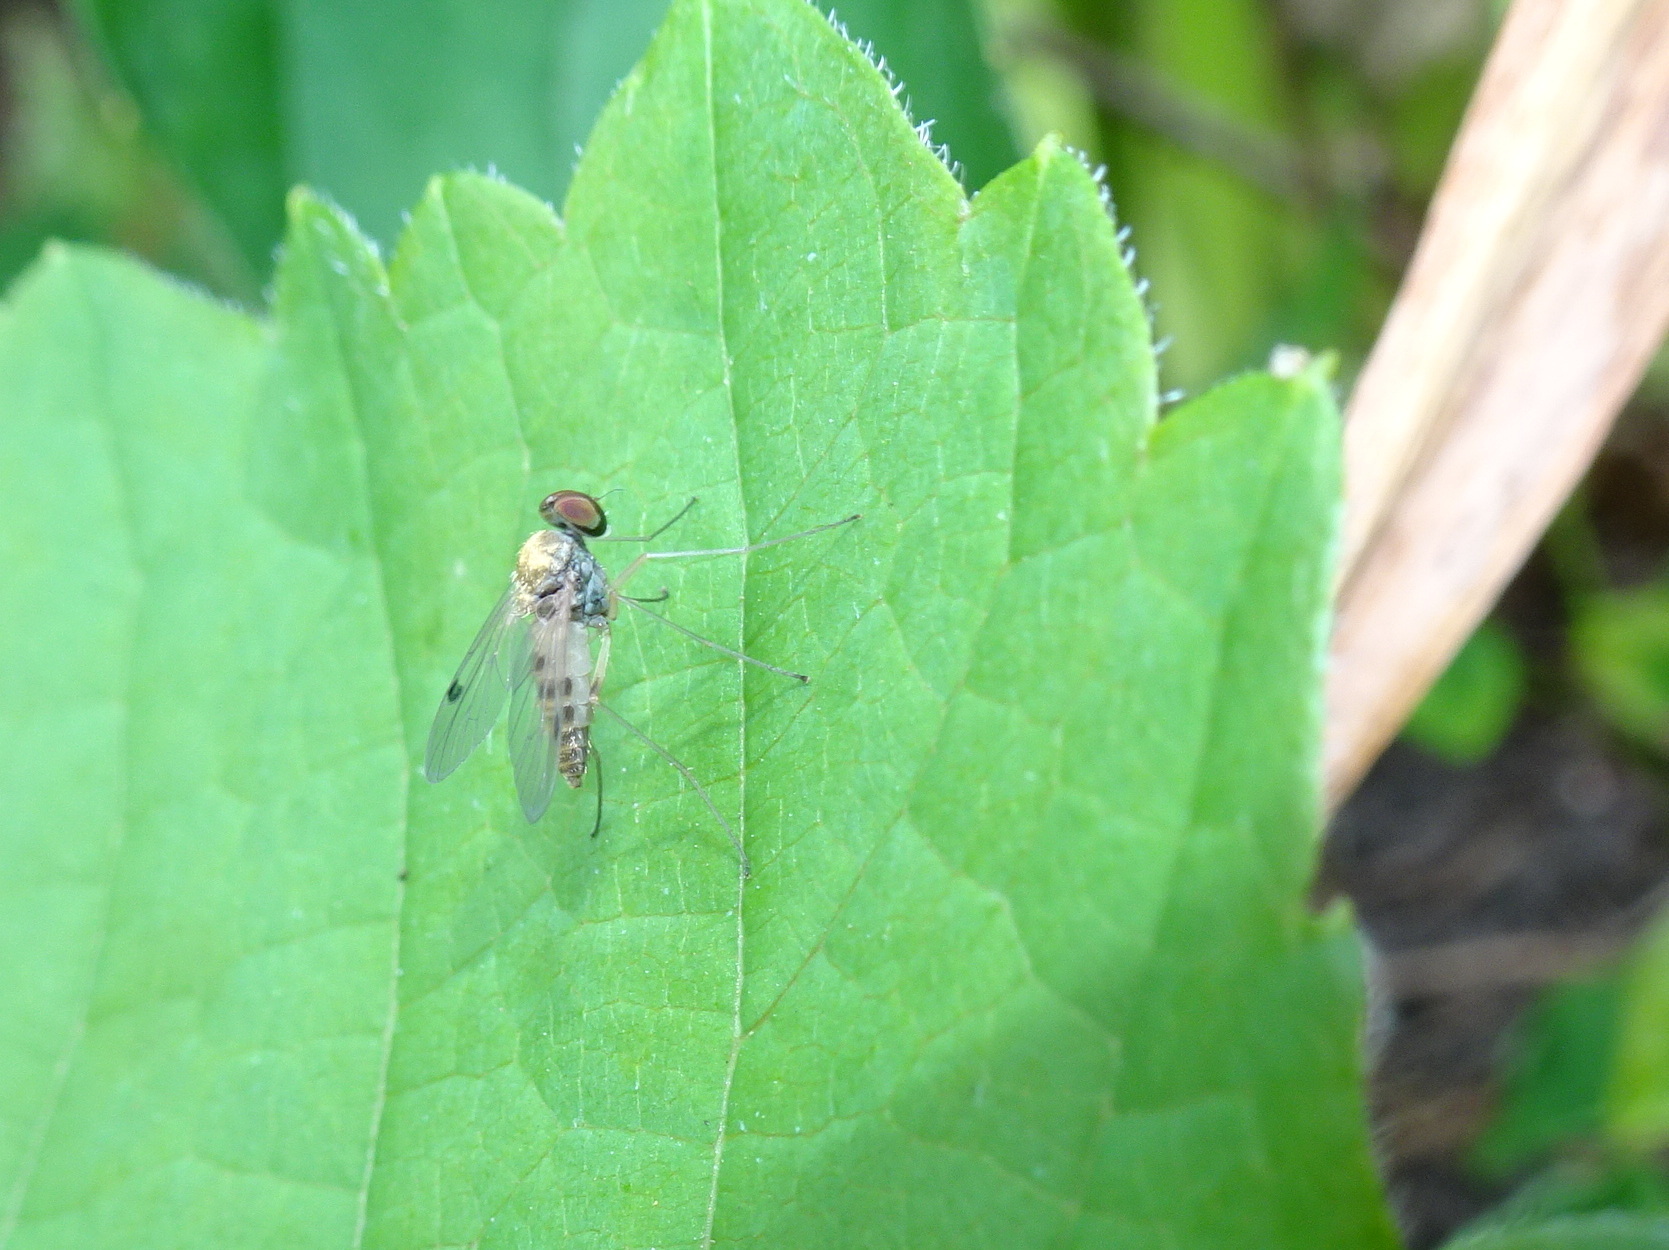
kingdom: Animalia
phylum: Arthropoda
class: Insecta
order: Diptera
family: Rhagionidae
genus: Chrysopilus
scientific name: Chrysopilus modestus
